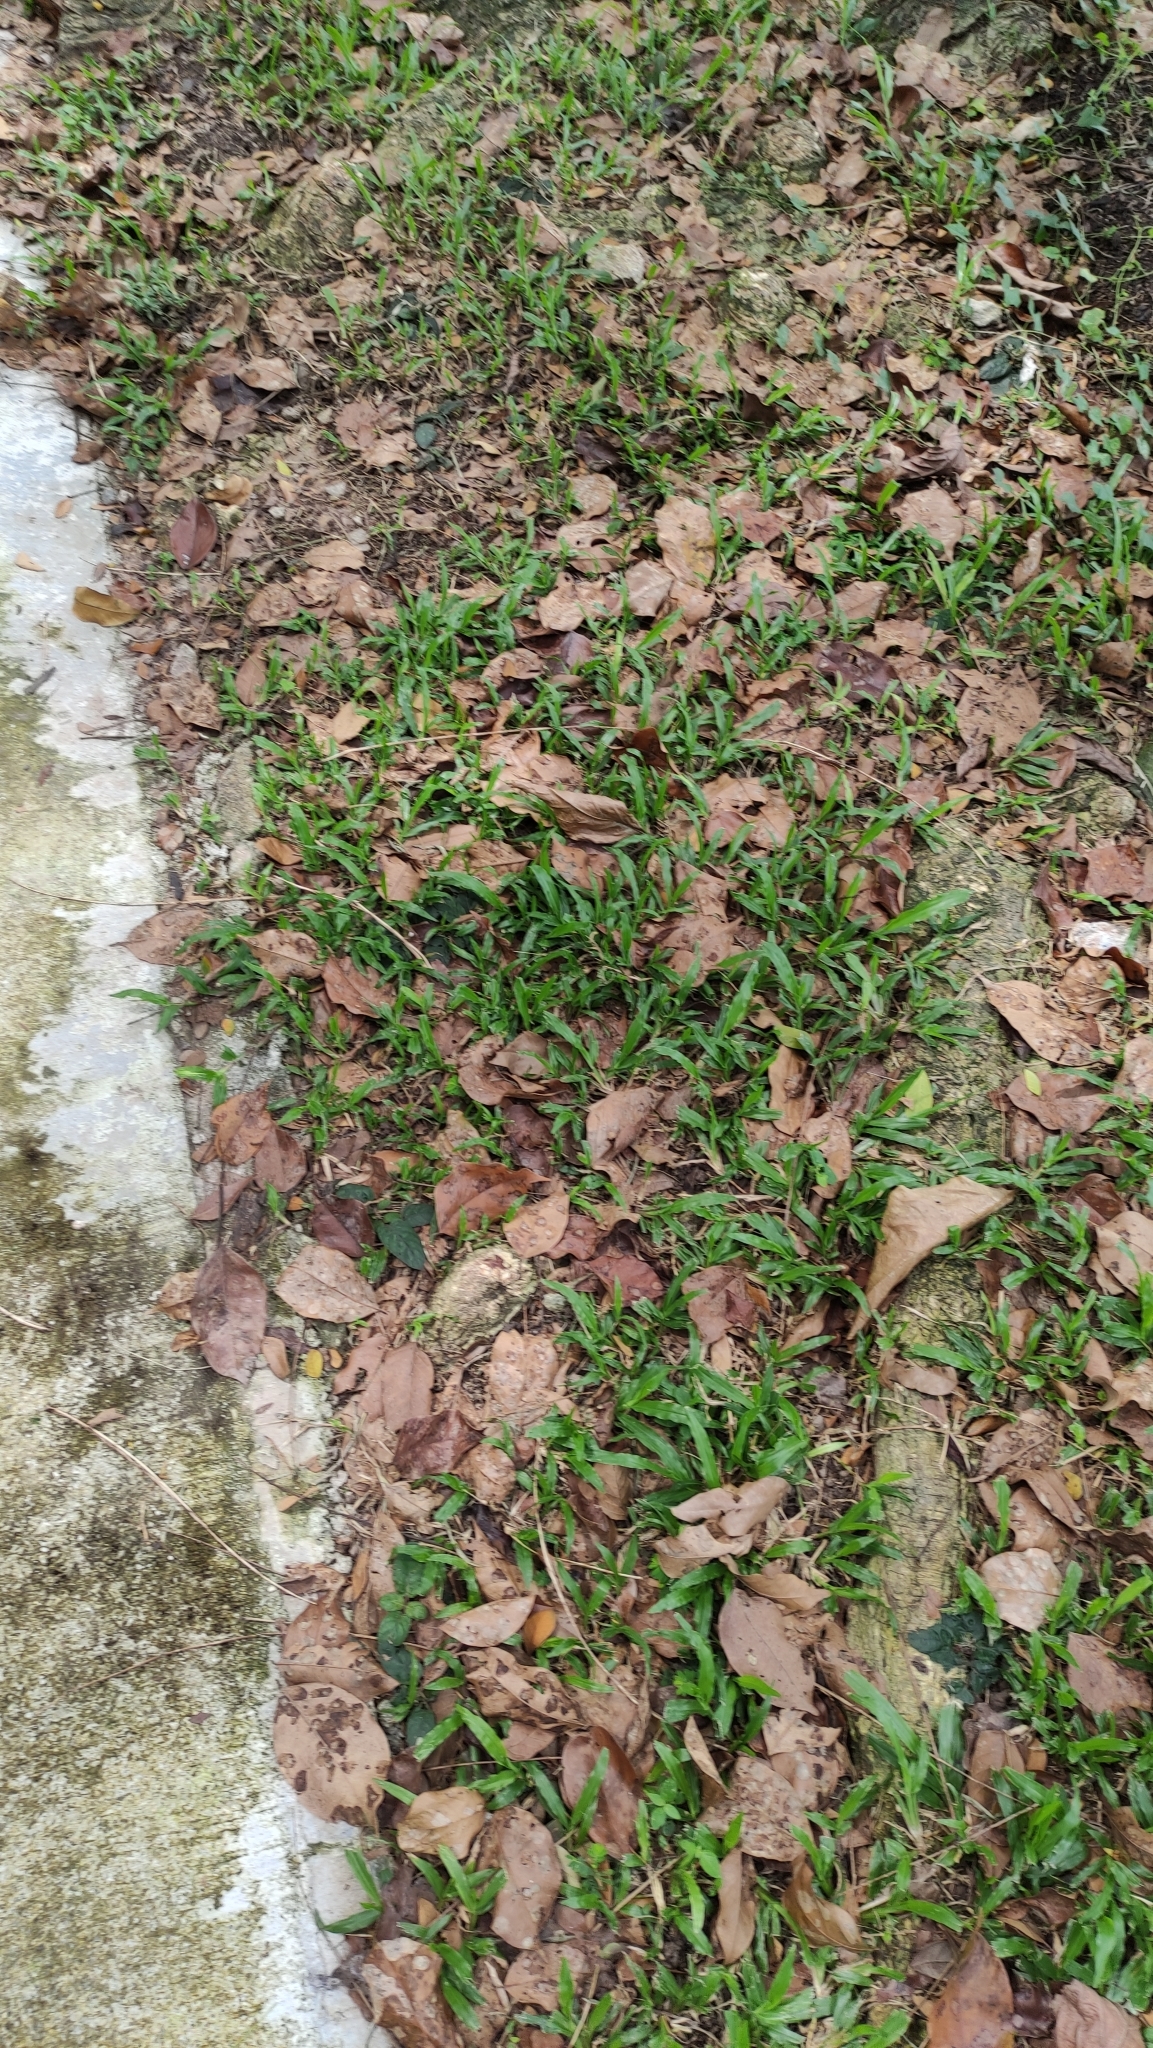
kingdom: Plantae
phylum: Tracheophyta
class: Liliopsida
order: Poales
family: Poaceae
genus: Axonopus
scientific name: Axonopus compressus
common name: American carpet grass
